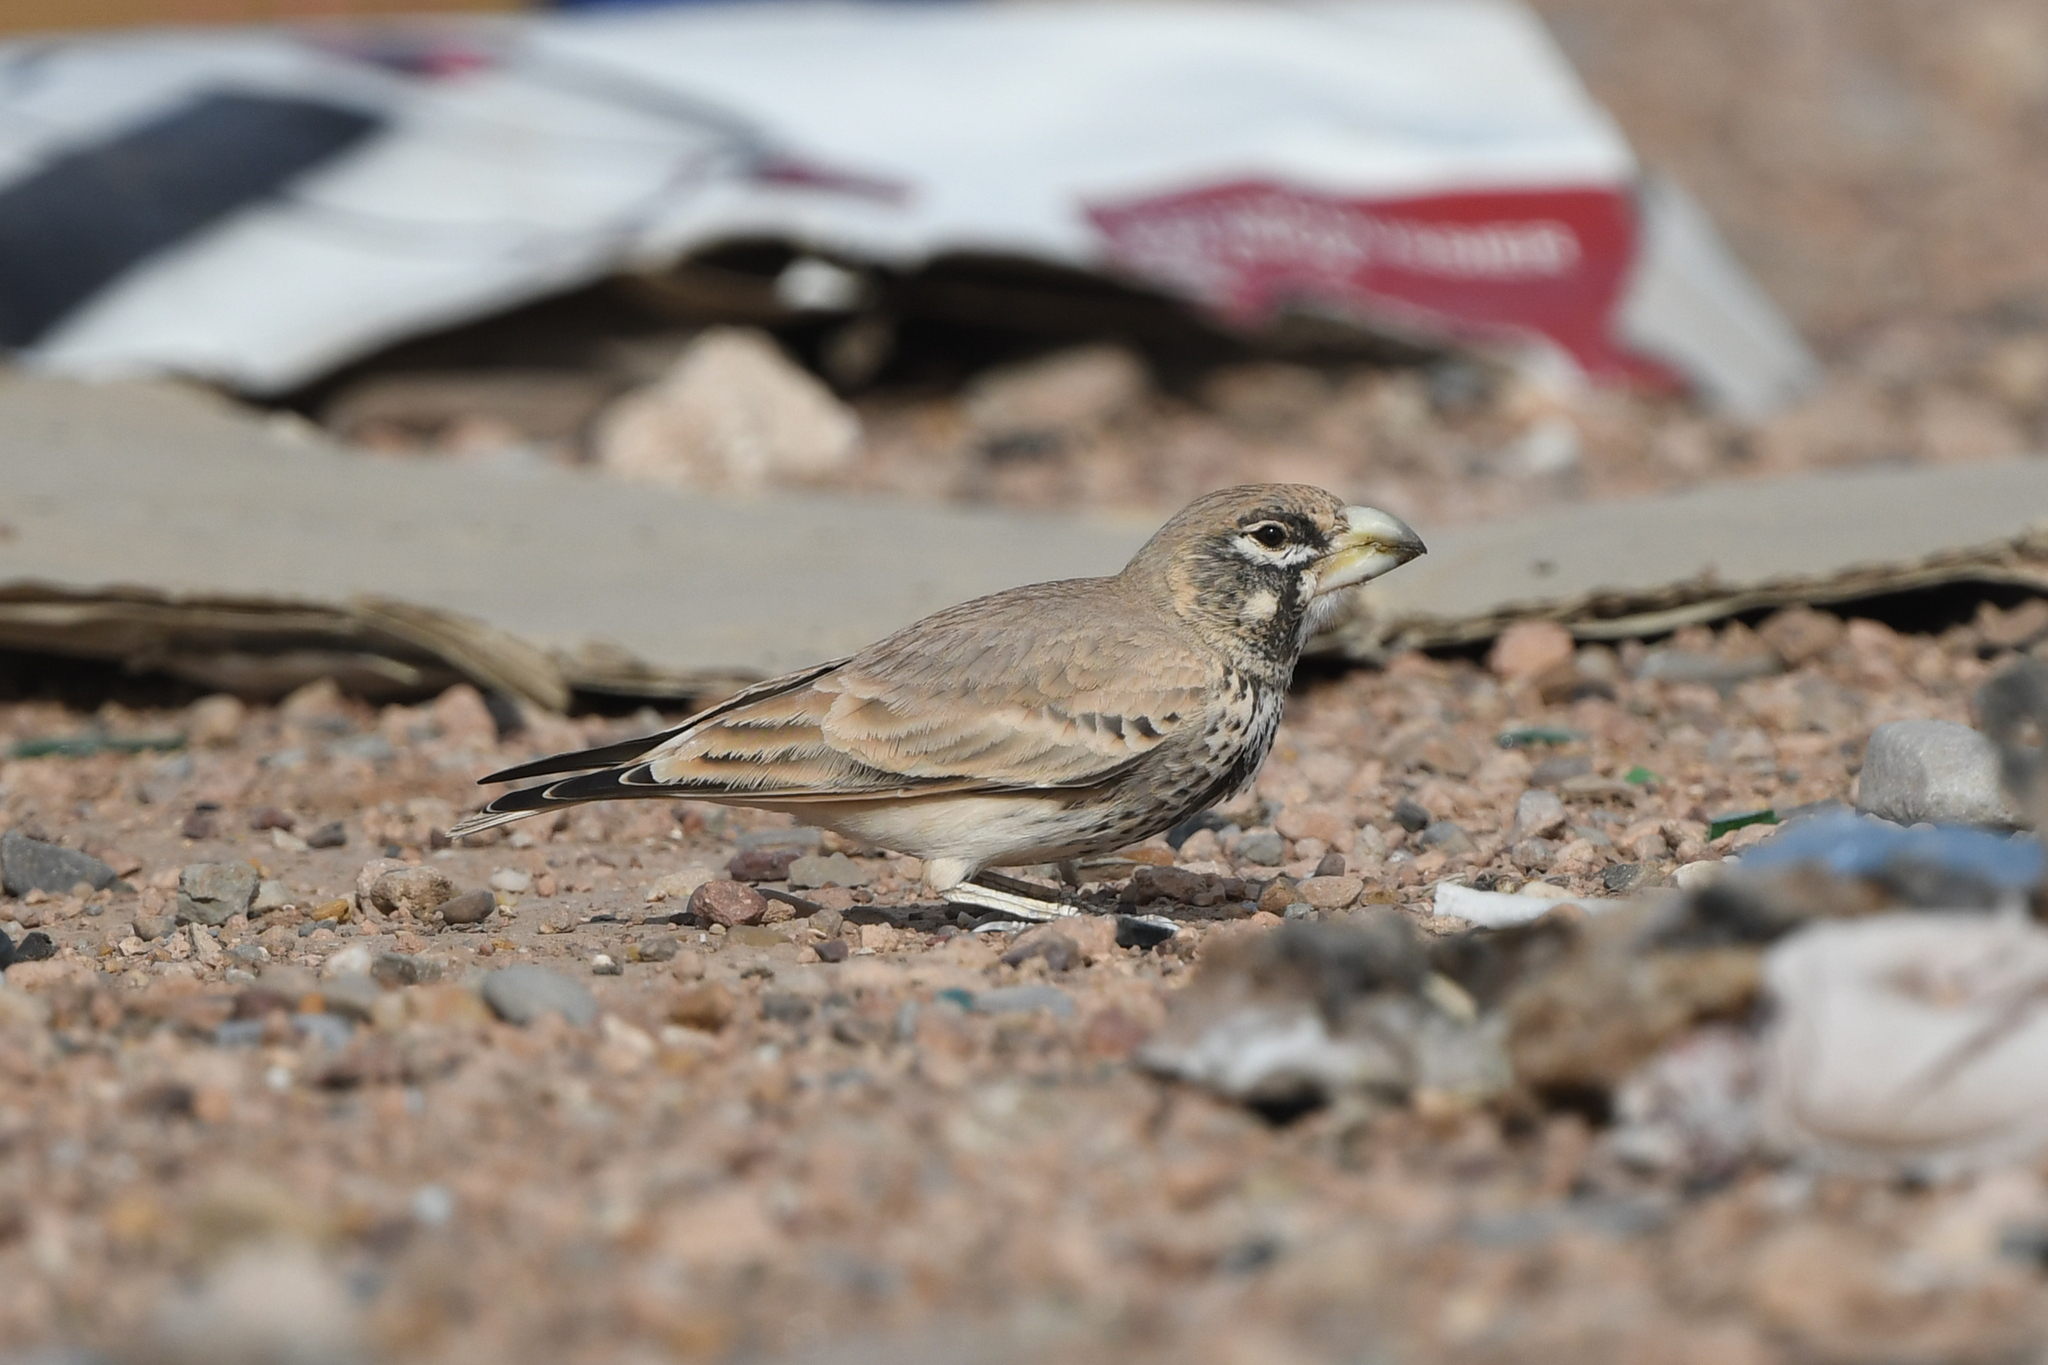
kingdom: Animalia
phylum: Chordata
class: Aves
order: Passeriformes
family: Alaudidae
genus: Ramphocoris
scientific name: Ramphocoris clotbey
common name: Thick-billed lark
